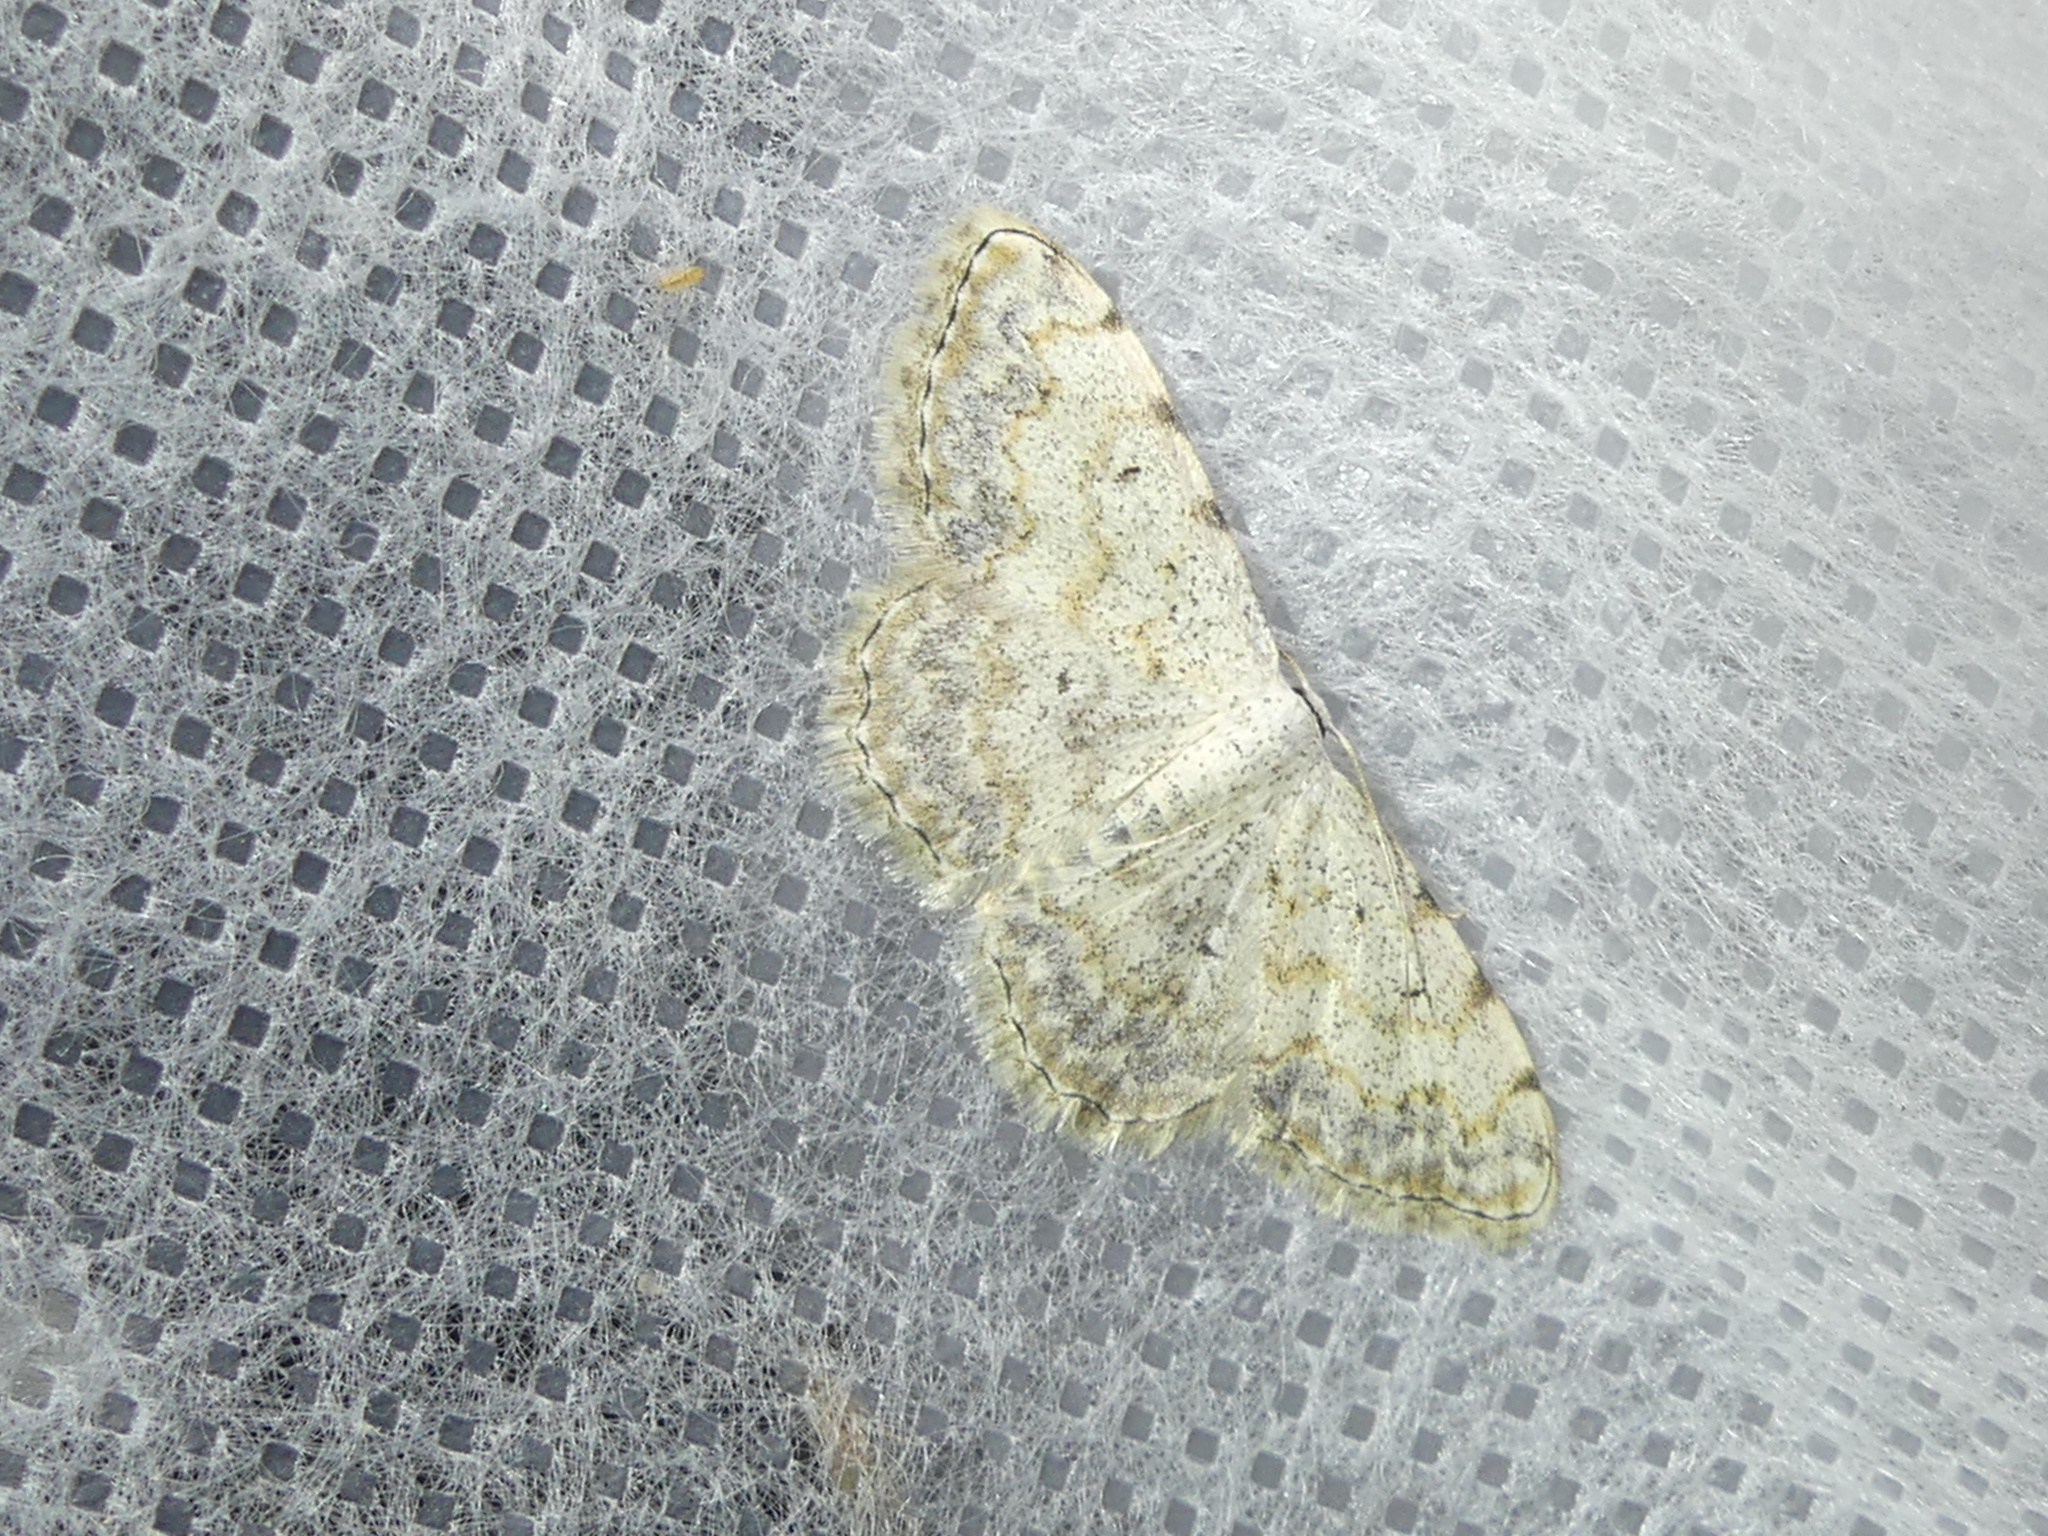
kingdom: Animalia
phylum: Arthropoda
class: Insecta
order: Lepidoptera
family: Geometridae
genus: Scopula
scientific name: Scopula submutata
